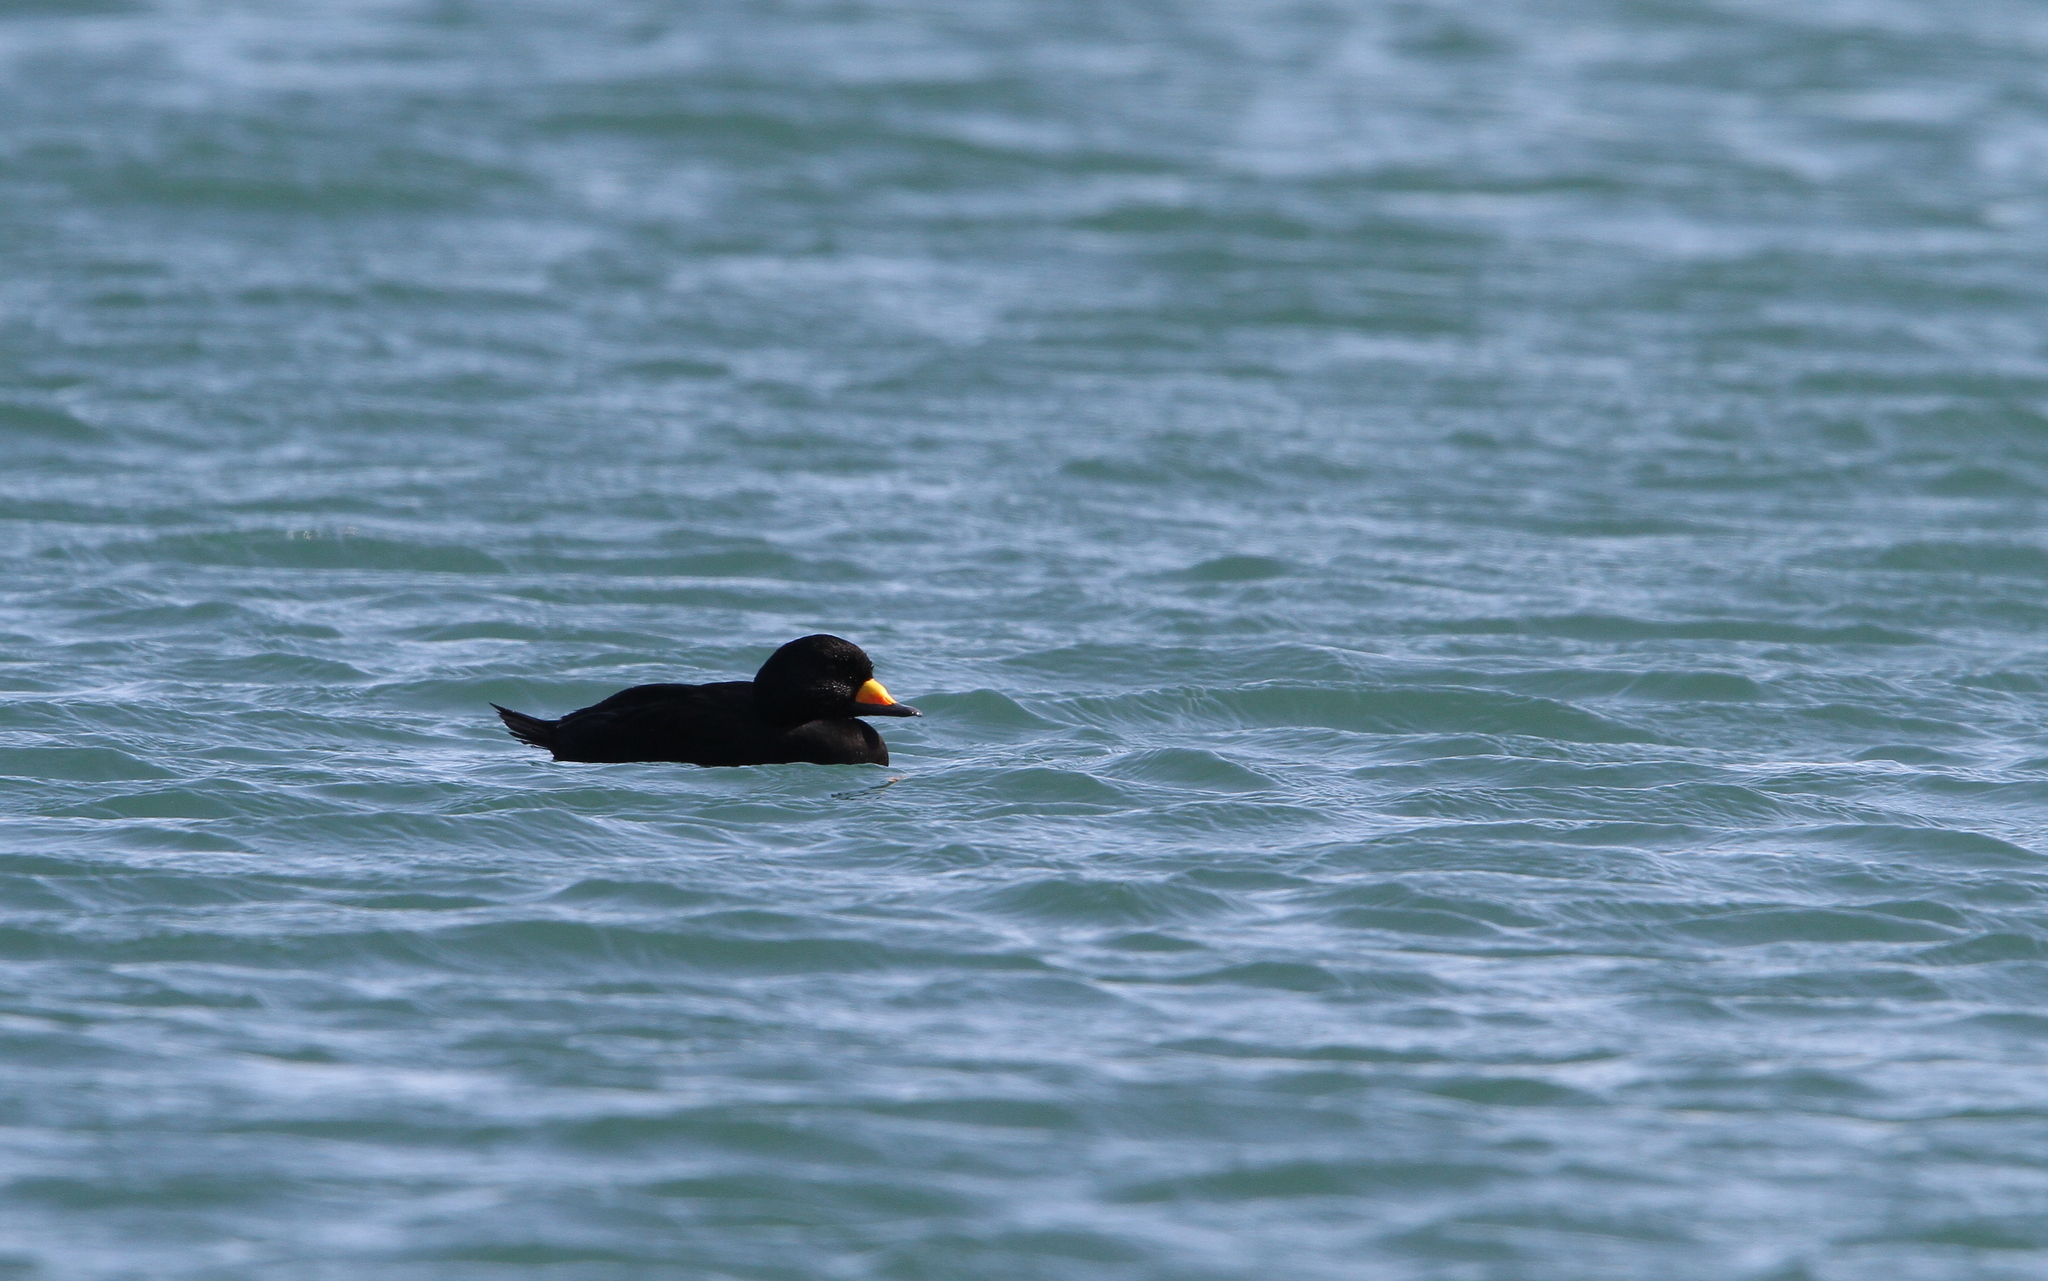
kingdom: Animalia
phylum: Chordata
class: Aves
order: Anseriformes
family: Anatidae
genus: Melanitta
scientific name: Melanitta americana
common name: Black scoter
